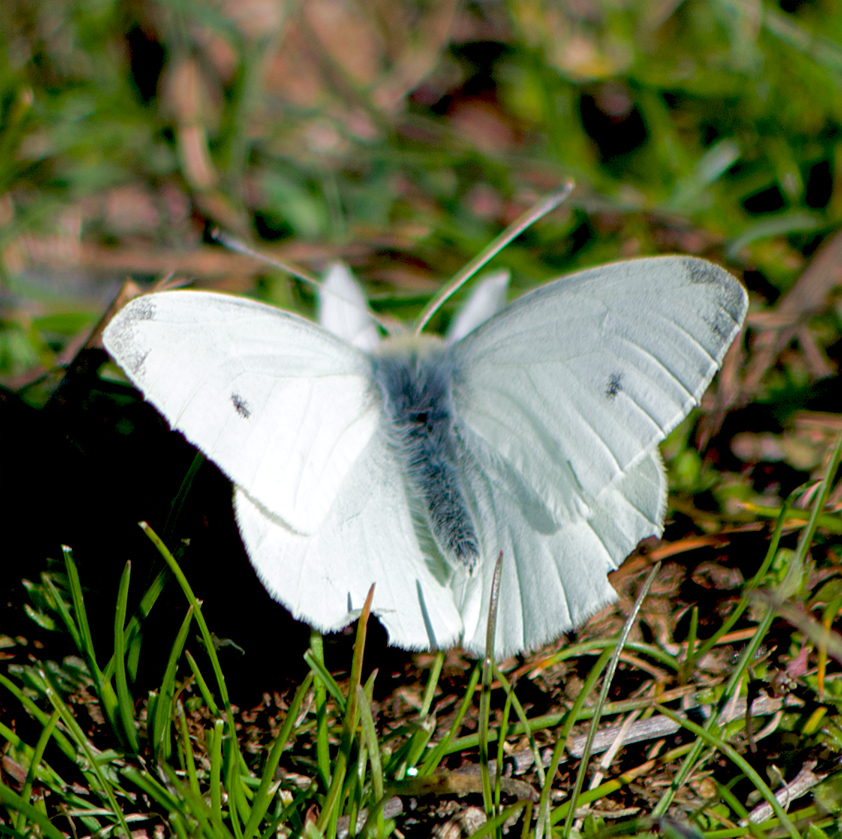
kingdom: Animalia
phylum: Arthropoda
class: Insecta
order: Lepidoptera
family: Pieridae
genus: Pieris
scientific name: Pieris rapae
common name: Small white
